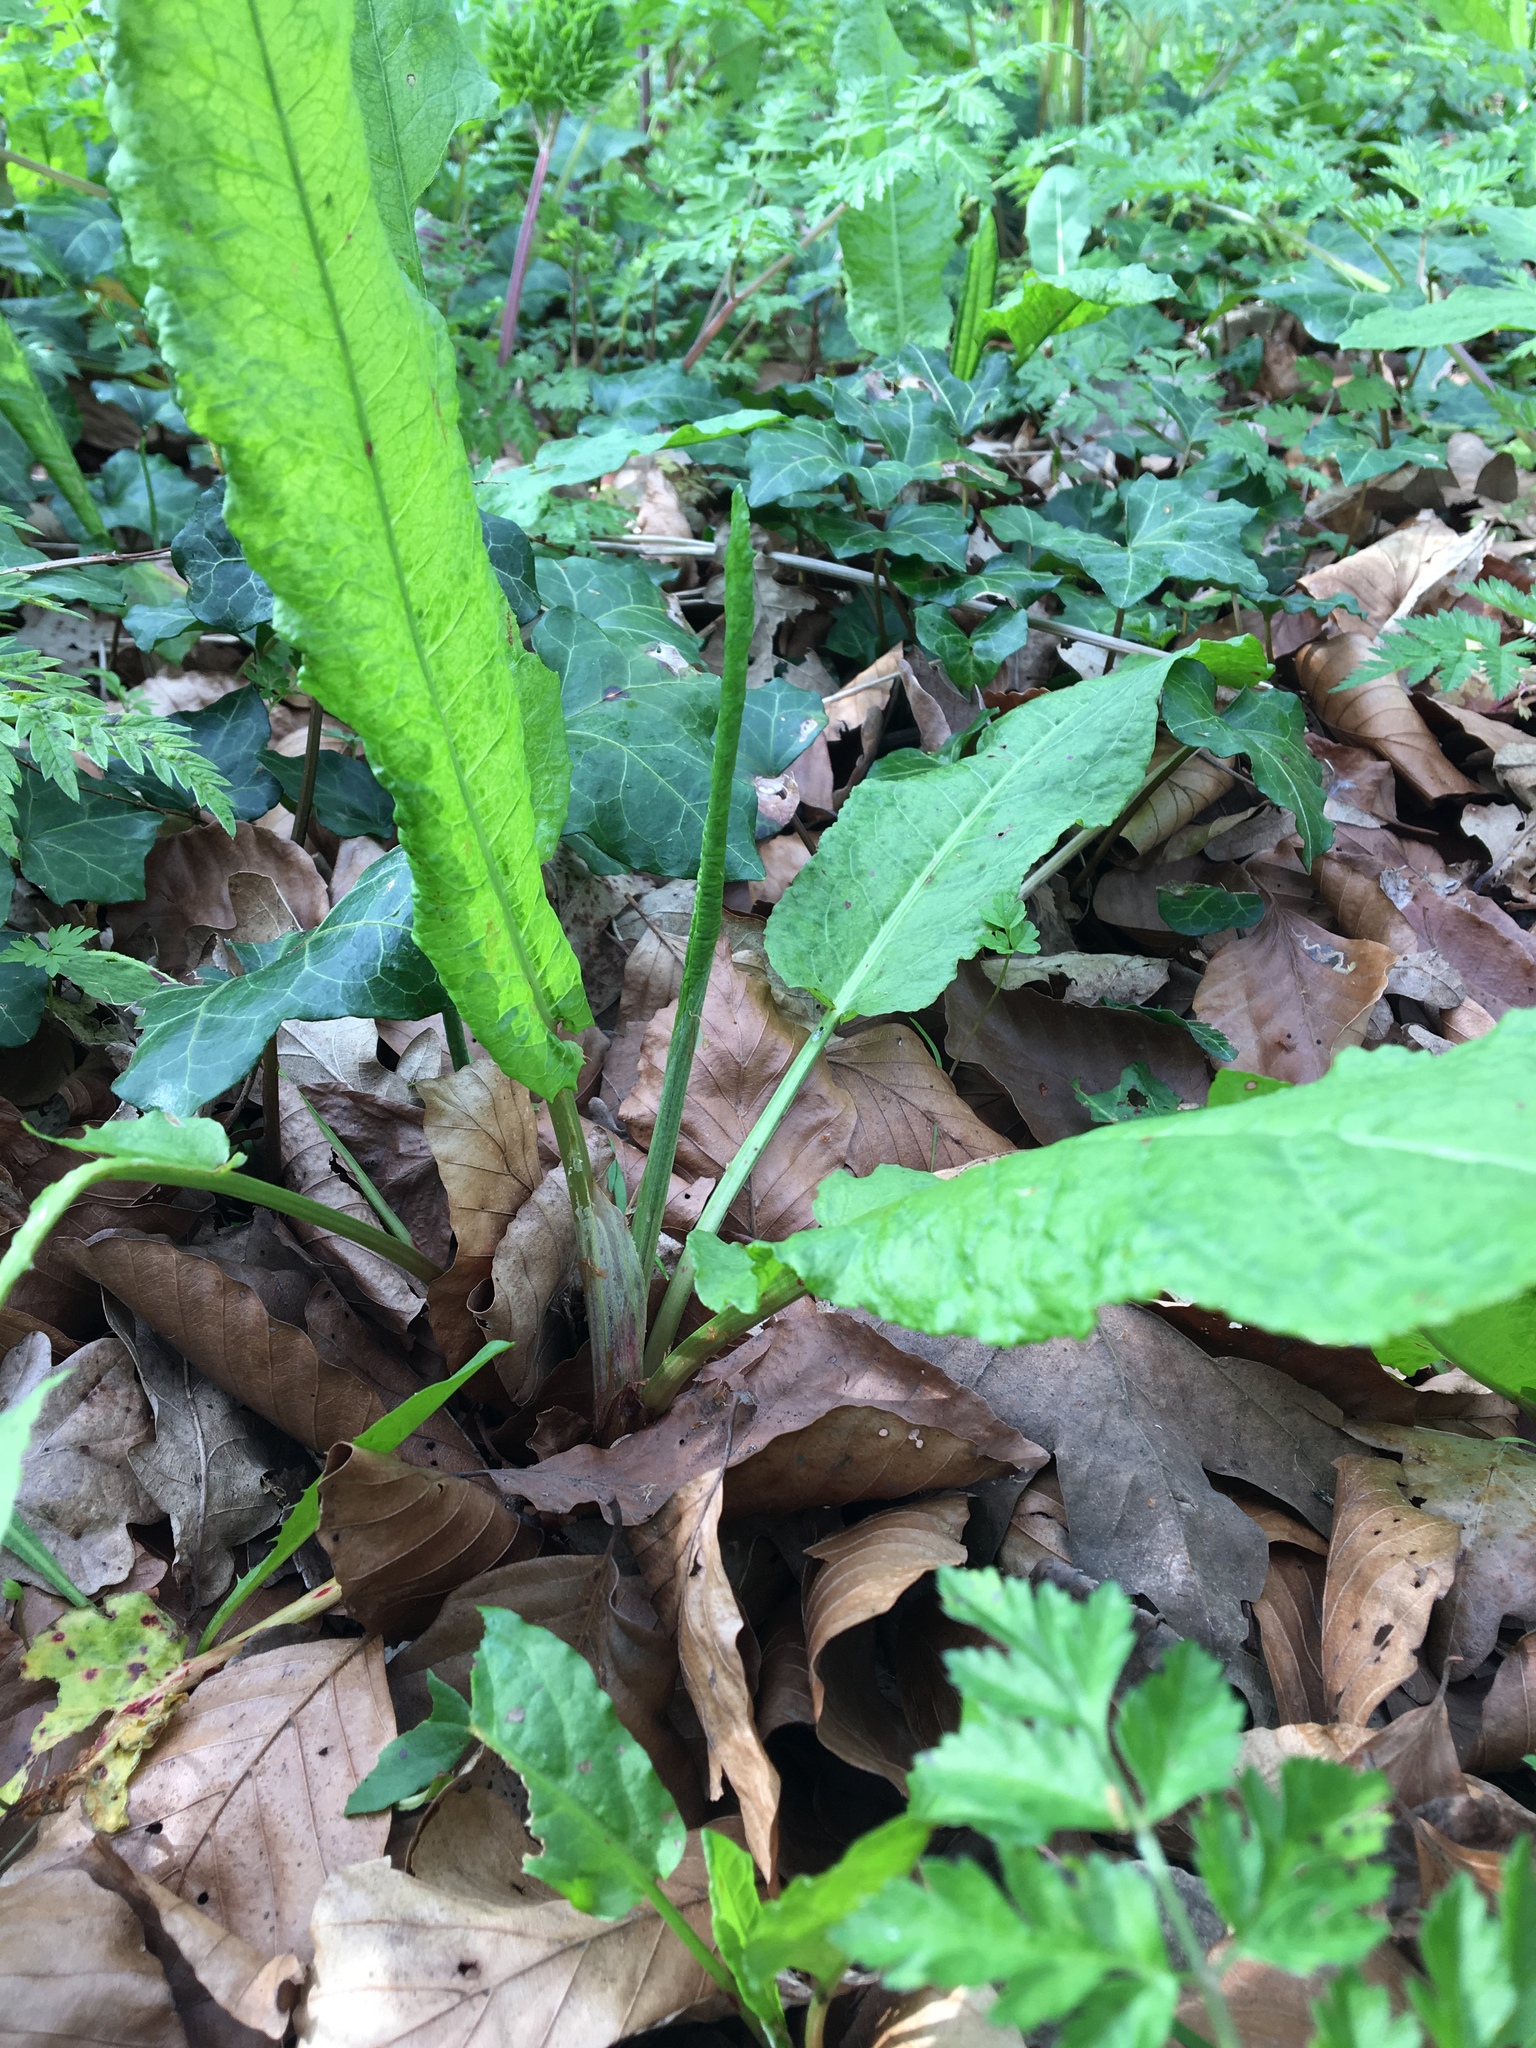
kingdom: Plantae
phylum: Tracheophyta
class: Magnoliopsida
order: Caryophyllales
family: Polygonaceae
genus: Rumex
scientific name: Rumex obtusifolius
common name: Bitter dock
